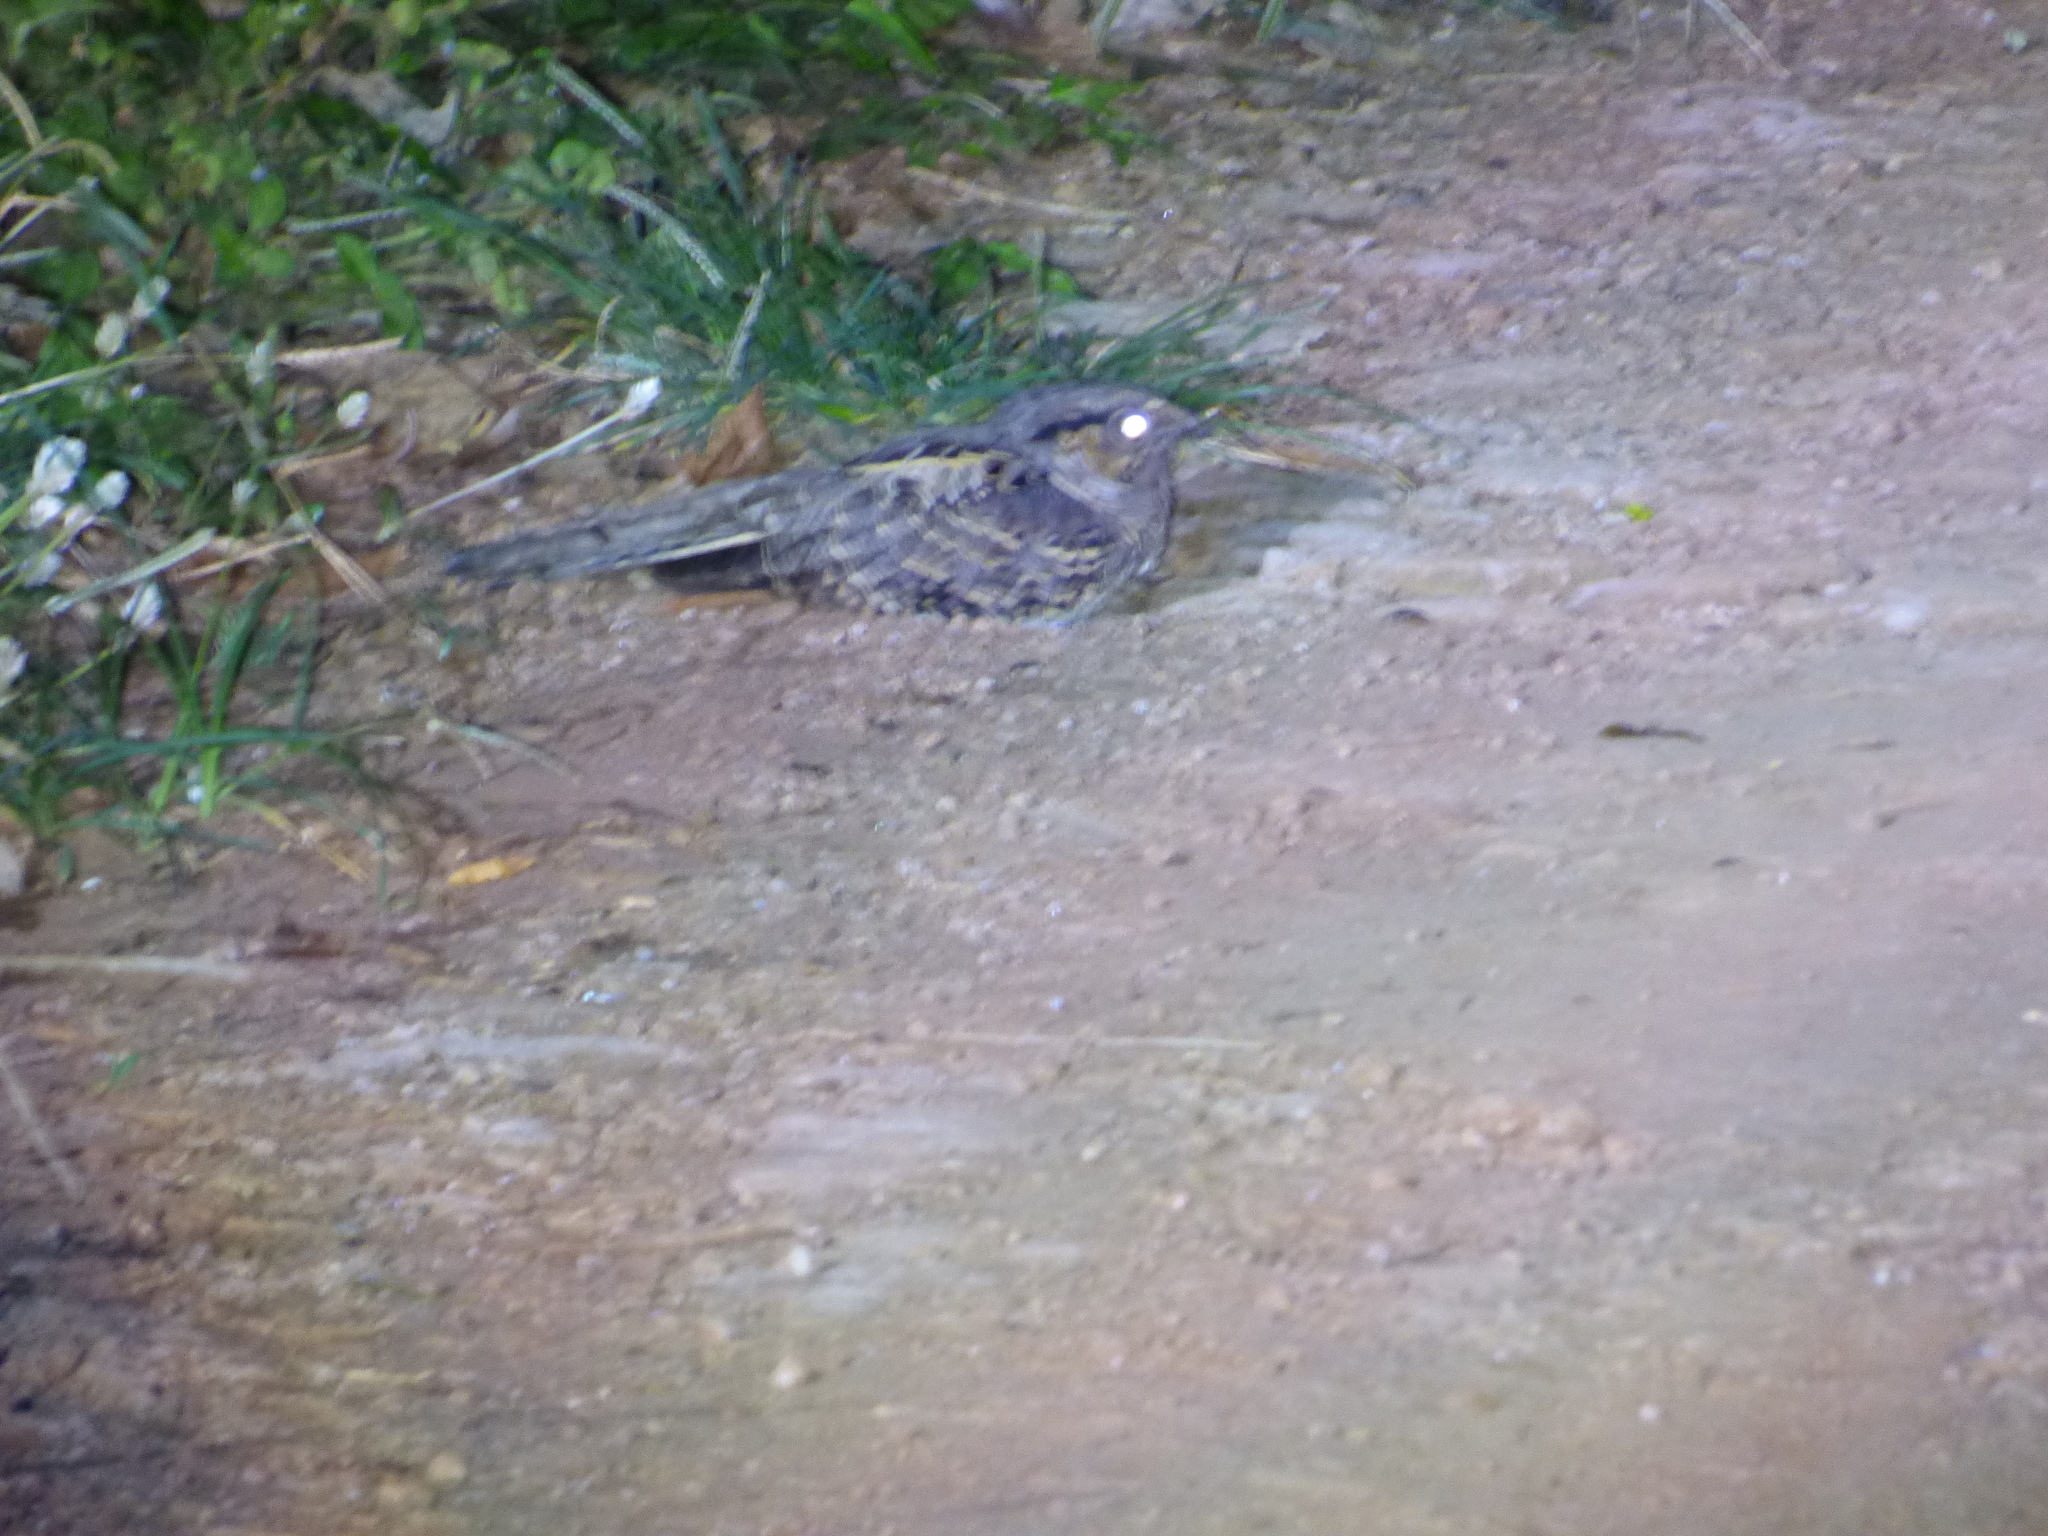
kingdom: Animalia
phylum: Chordata
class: Aves
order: Caprimulgiformes
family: Caprimulgidae
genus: Nyctidromus
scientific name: Nyctidromus albicollis
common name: Pauraque
